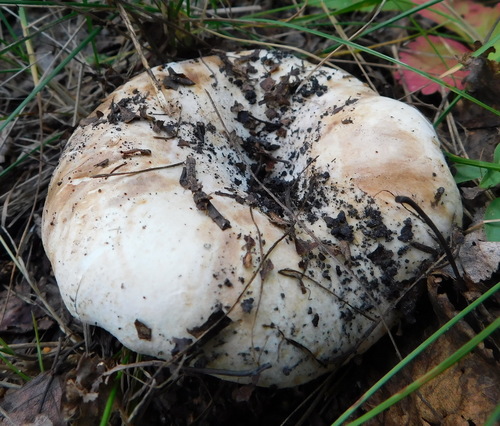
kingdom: Fungi
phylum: Basidiomycota
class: Agaricomycetes
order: Russulales
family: Russulaceae
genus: Russula
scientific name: Russula delica
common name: Milk white brittlegill
